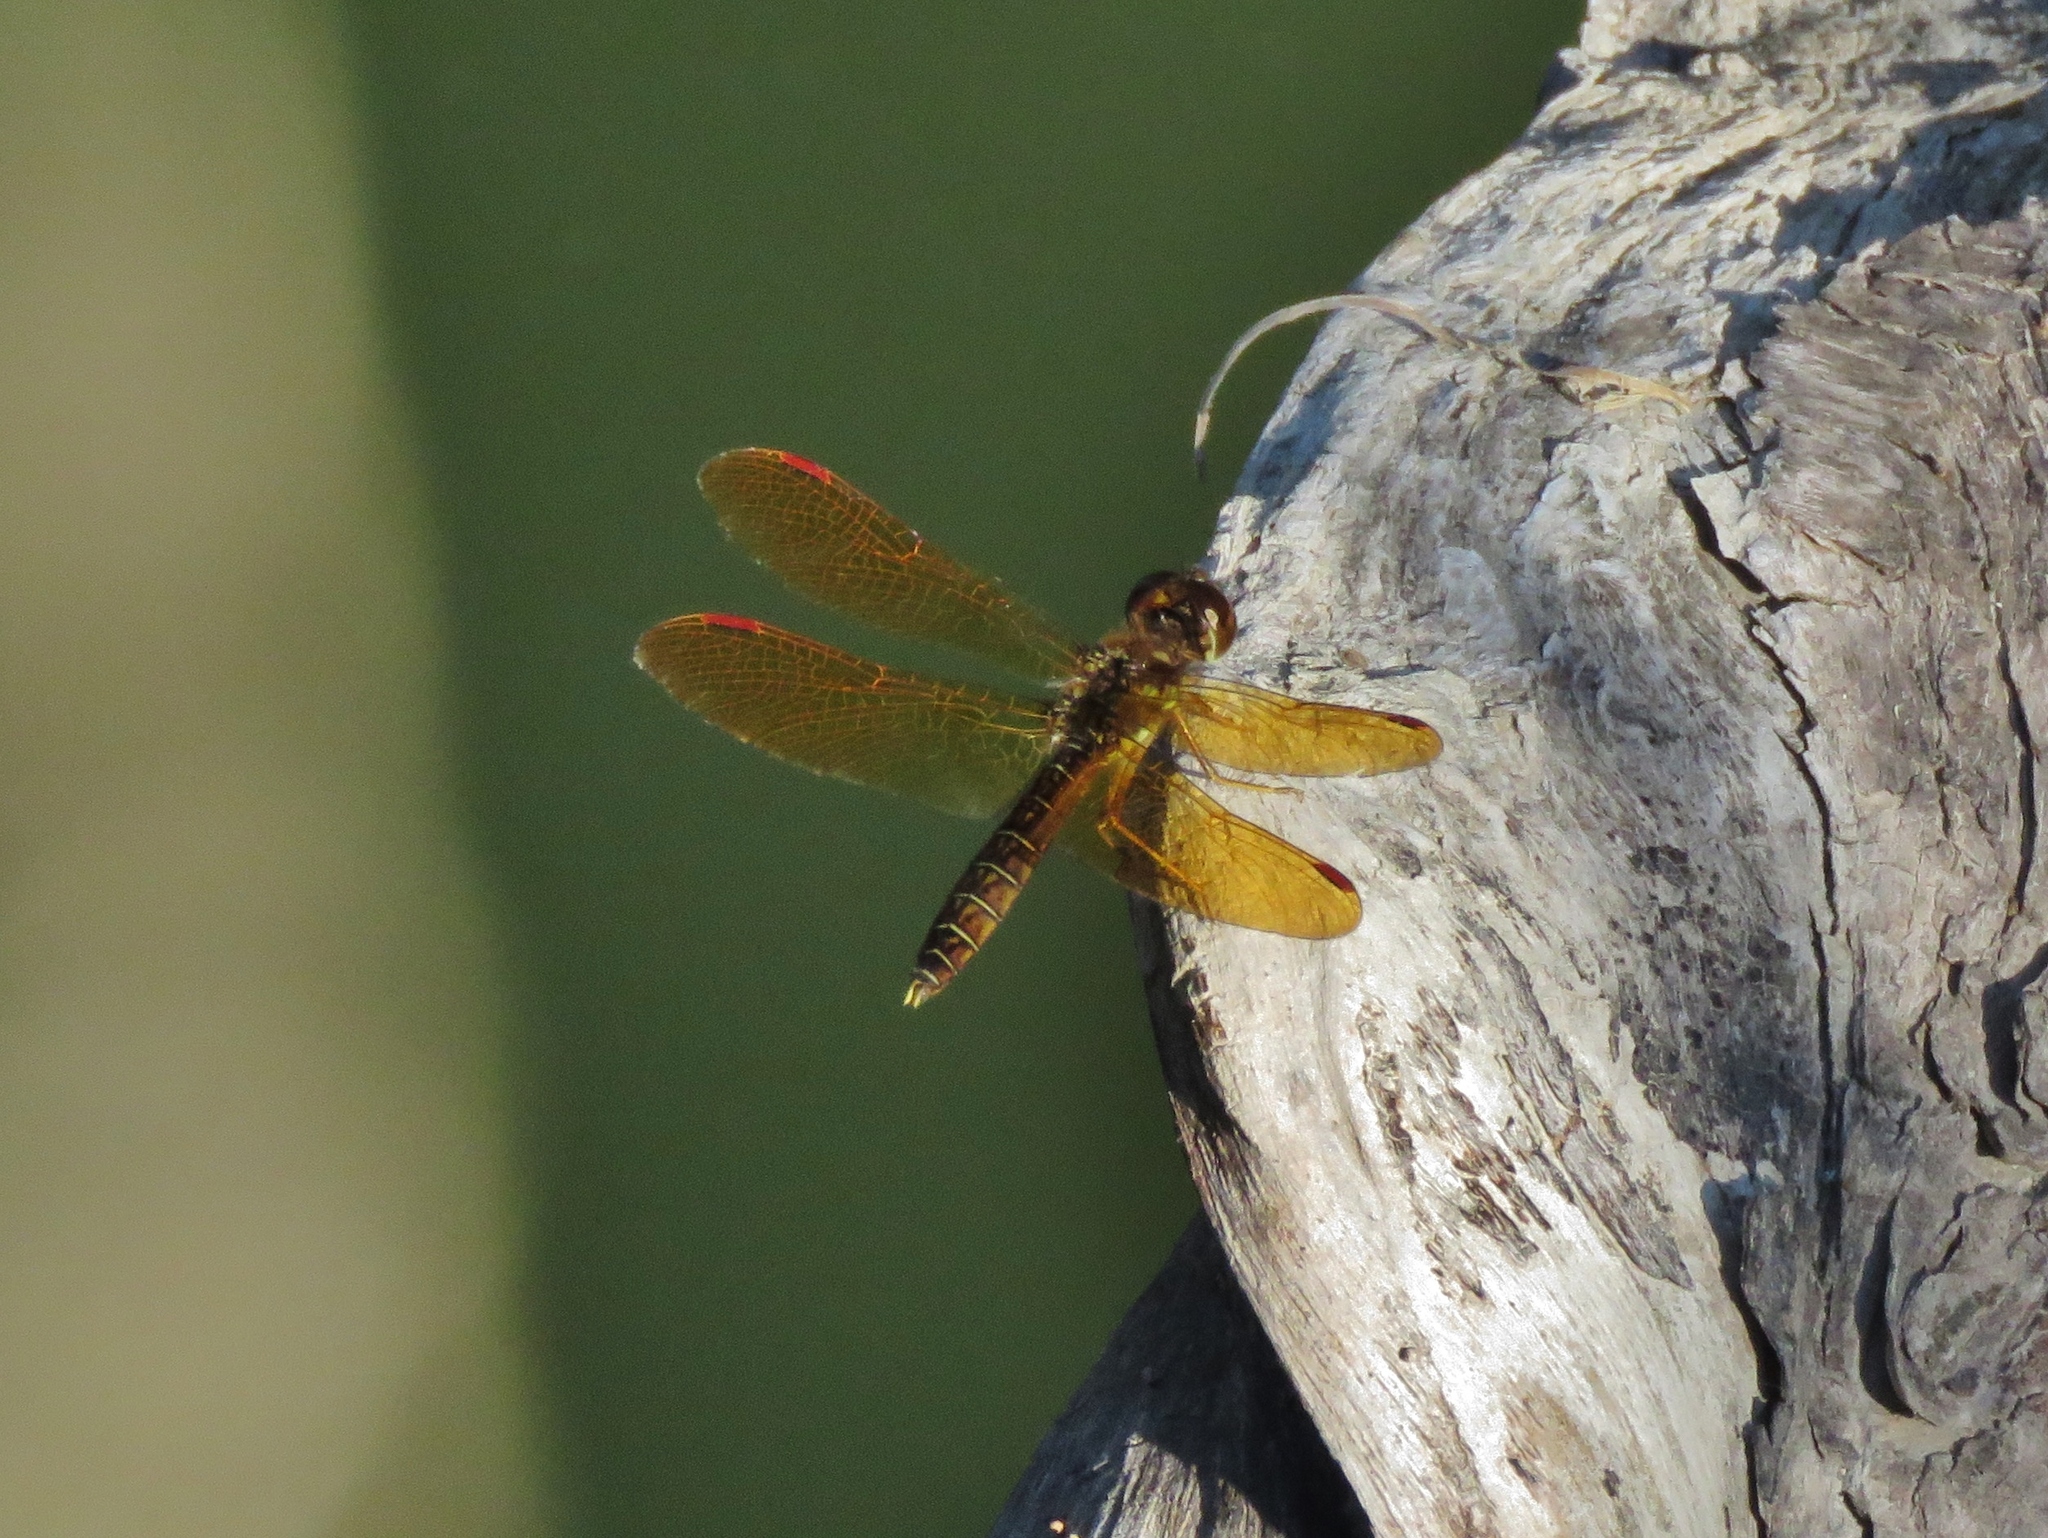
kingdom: Animalia
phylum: Arthropoda
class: Insecta
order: Odonata
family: Libellulidae
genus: Perithemis
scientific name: Perithemis tenera
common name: Eastern amberwing
